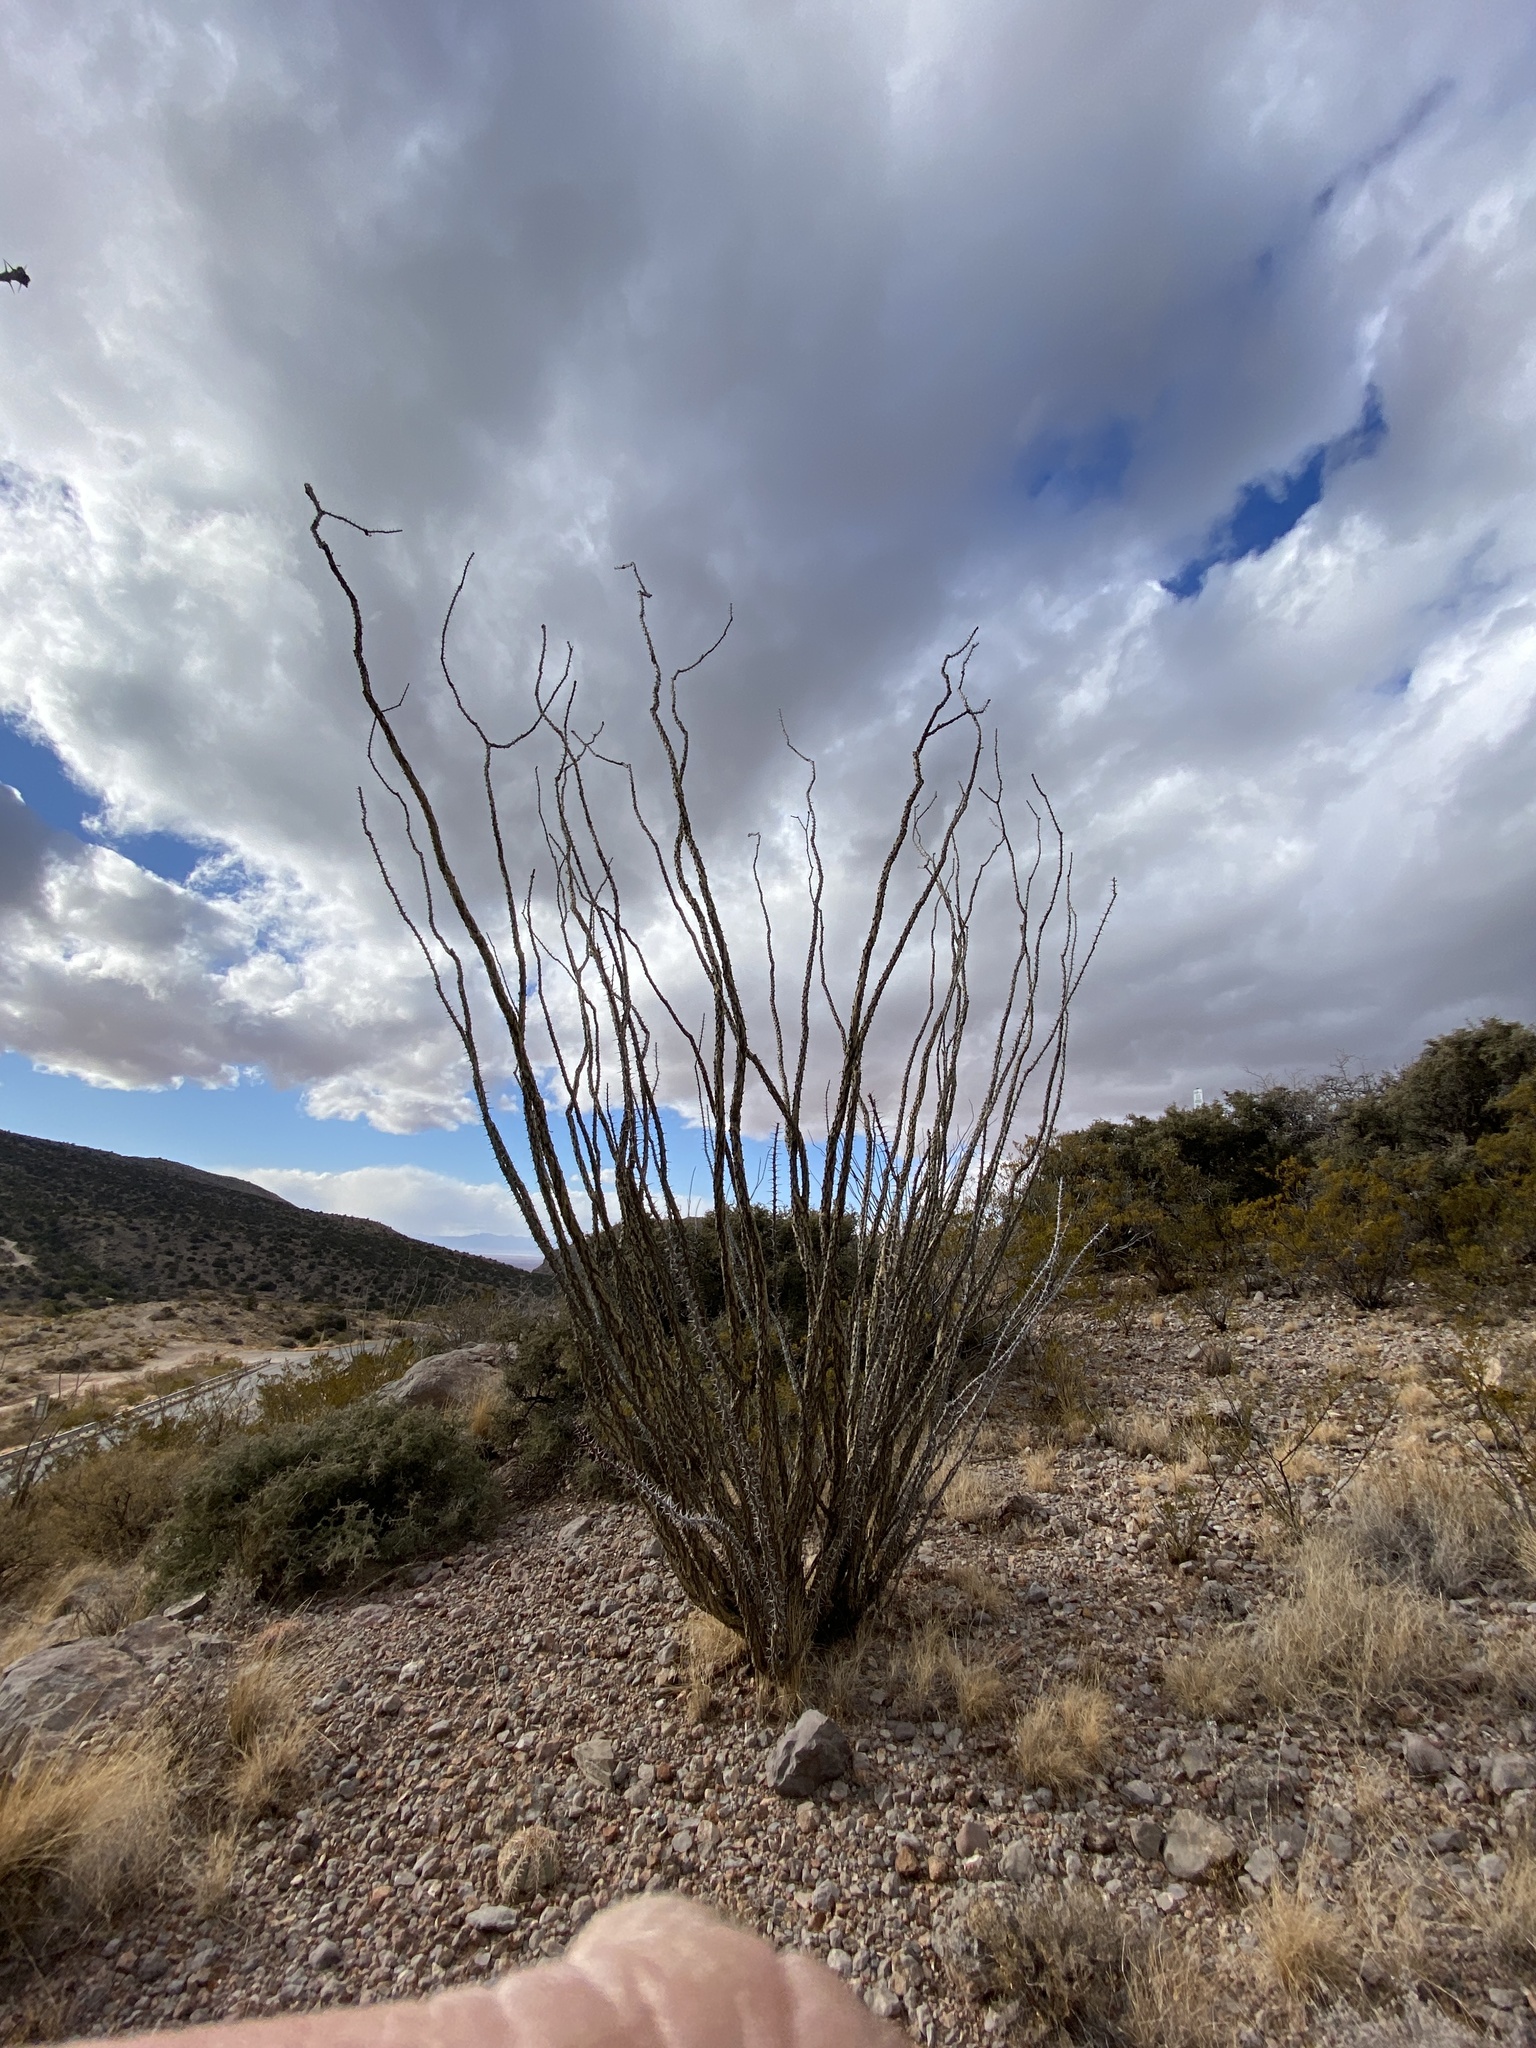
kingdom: Plantae
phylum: Tracheophyta
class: Magnoliopsida
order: Ericales
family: Fouquieriaceae
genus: Fouquieria
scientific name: Fouquieria splendens
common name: Vine-cactus
